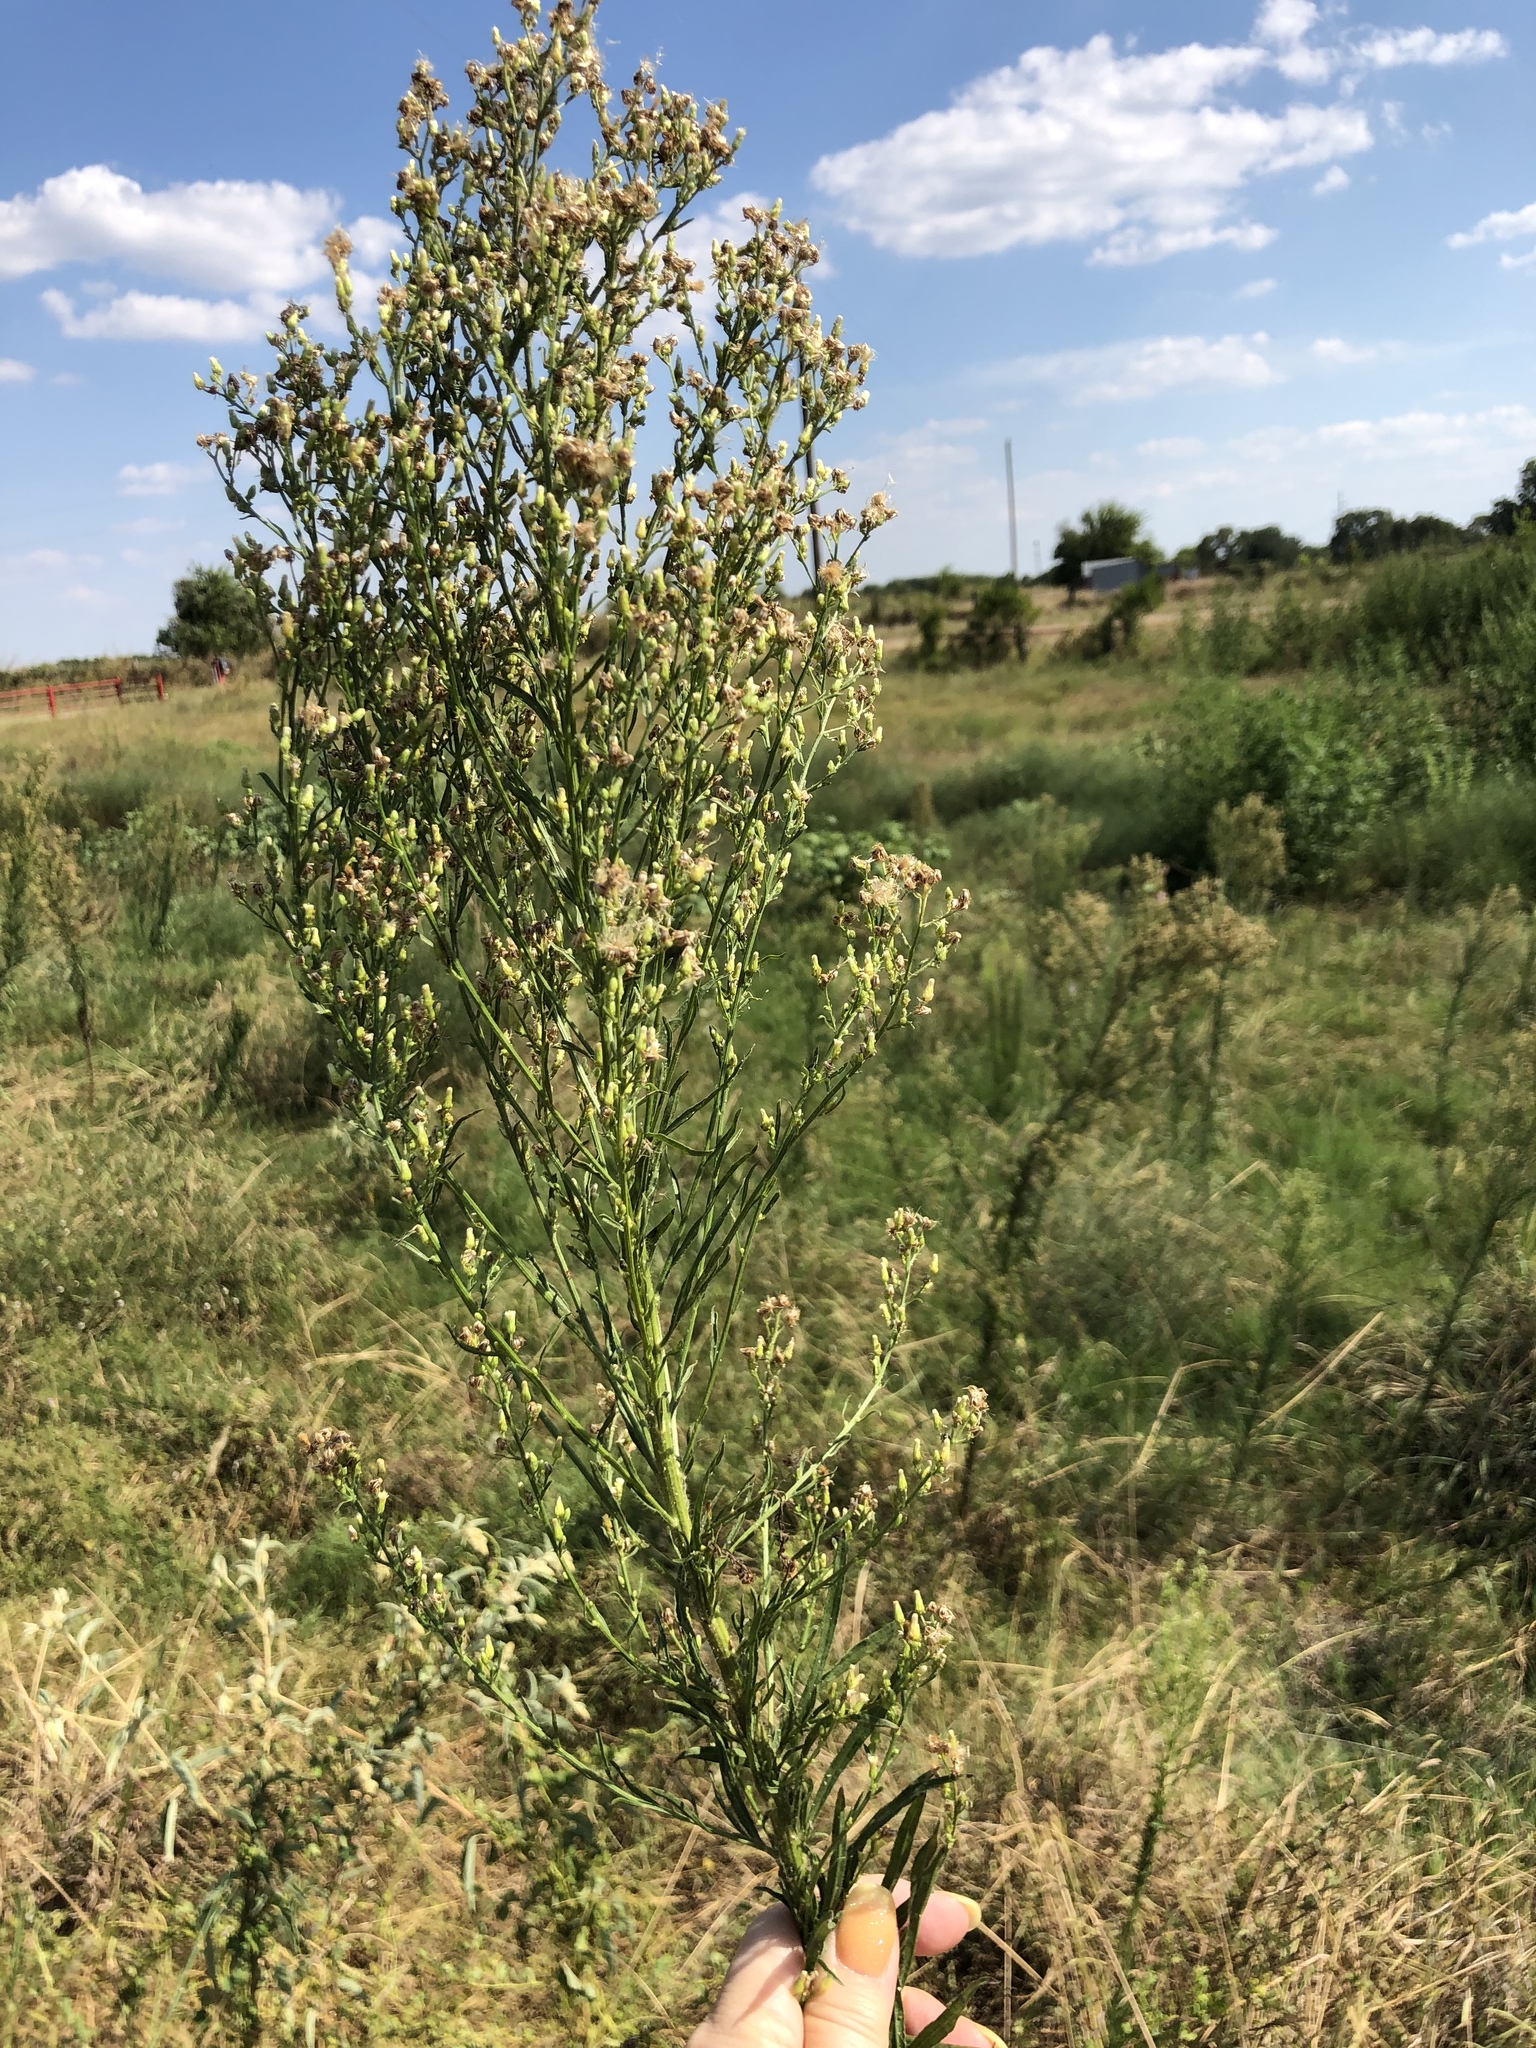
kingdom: Plantae
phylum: Tracheophyta
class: Magnoliopsida
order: Asterales
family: Asteraceae
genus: Erigeron
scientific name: Erigeron canadensis
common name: Canadian fleabane
